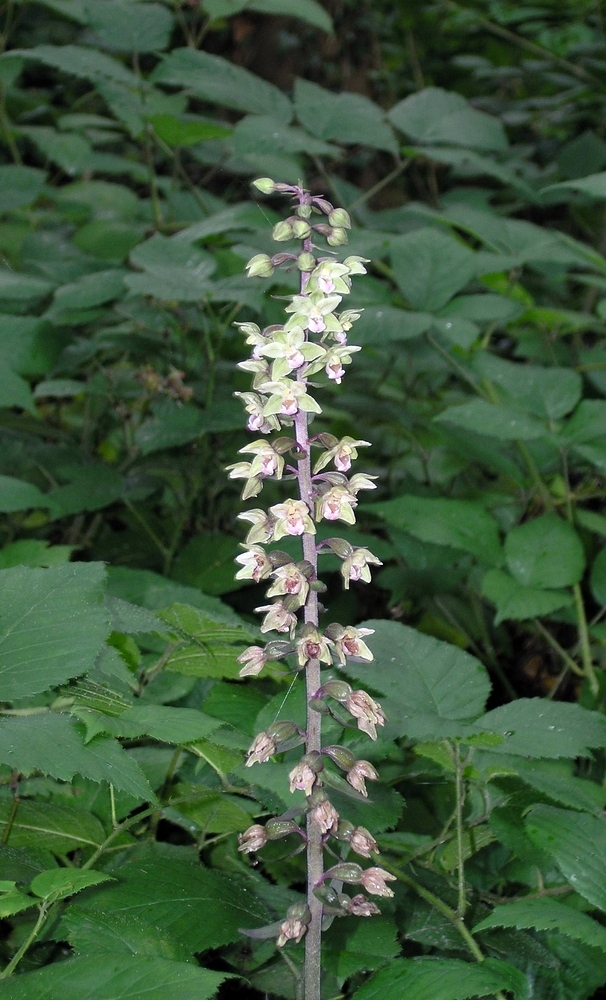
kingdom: Plantae
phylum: Tracheophyta
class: Liliopsida
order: Asparagales
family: Orchidaceae
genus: Epipactis
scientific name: Epipactis purpurata
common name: Violet helleborine
